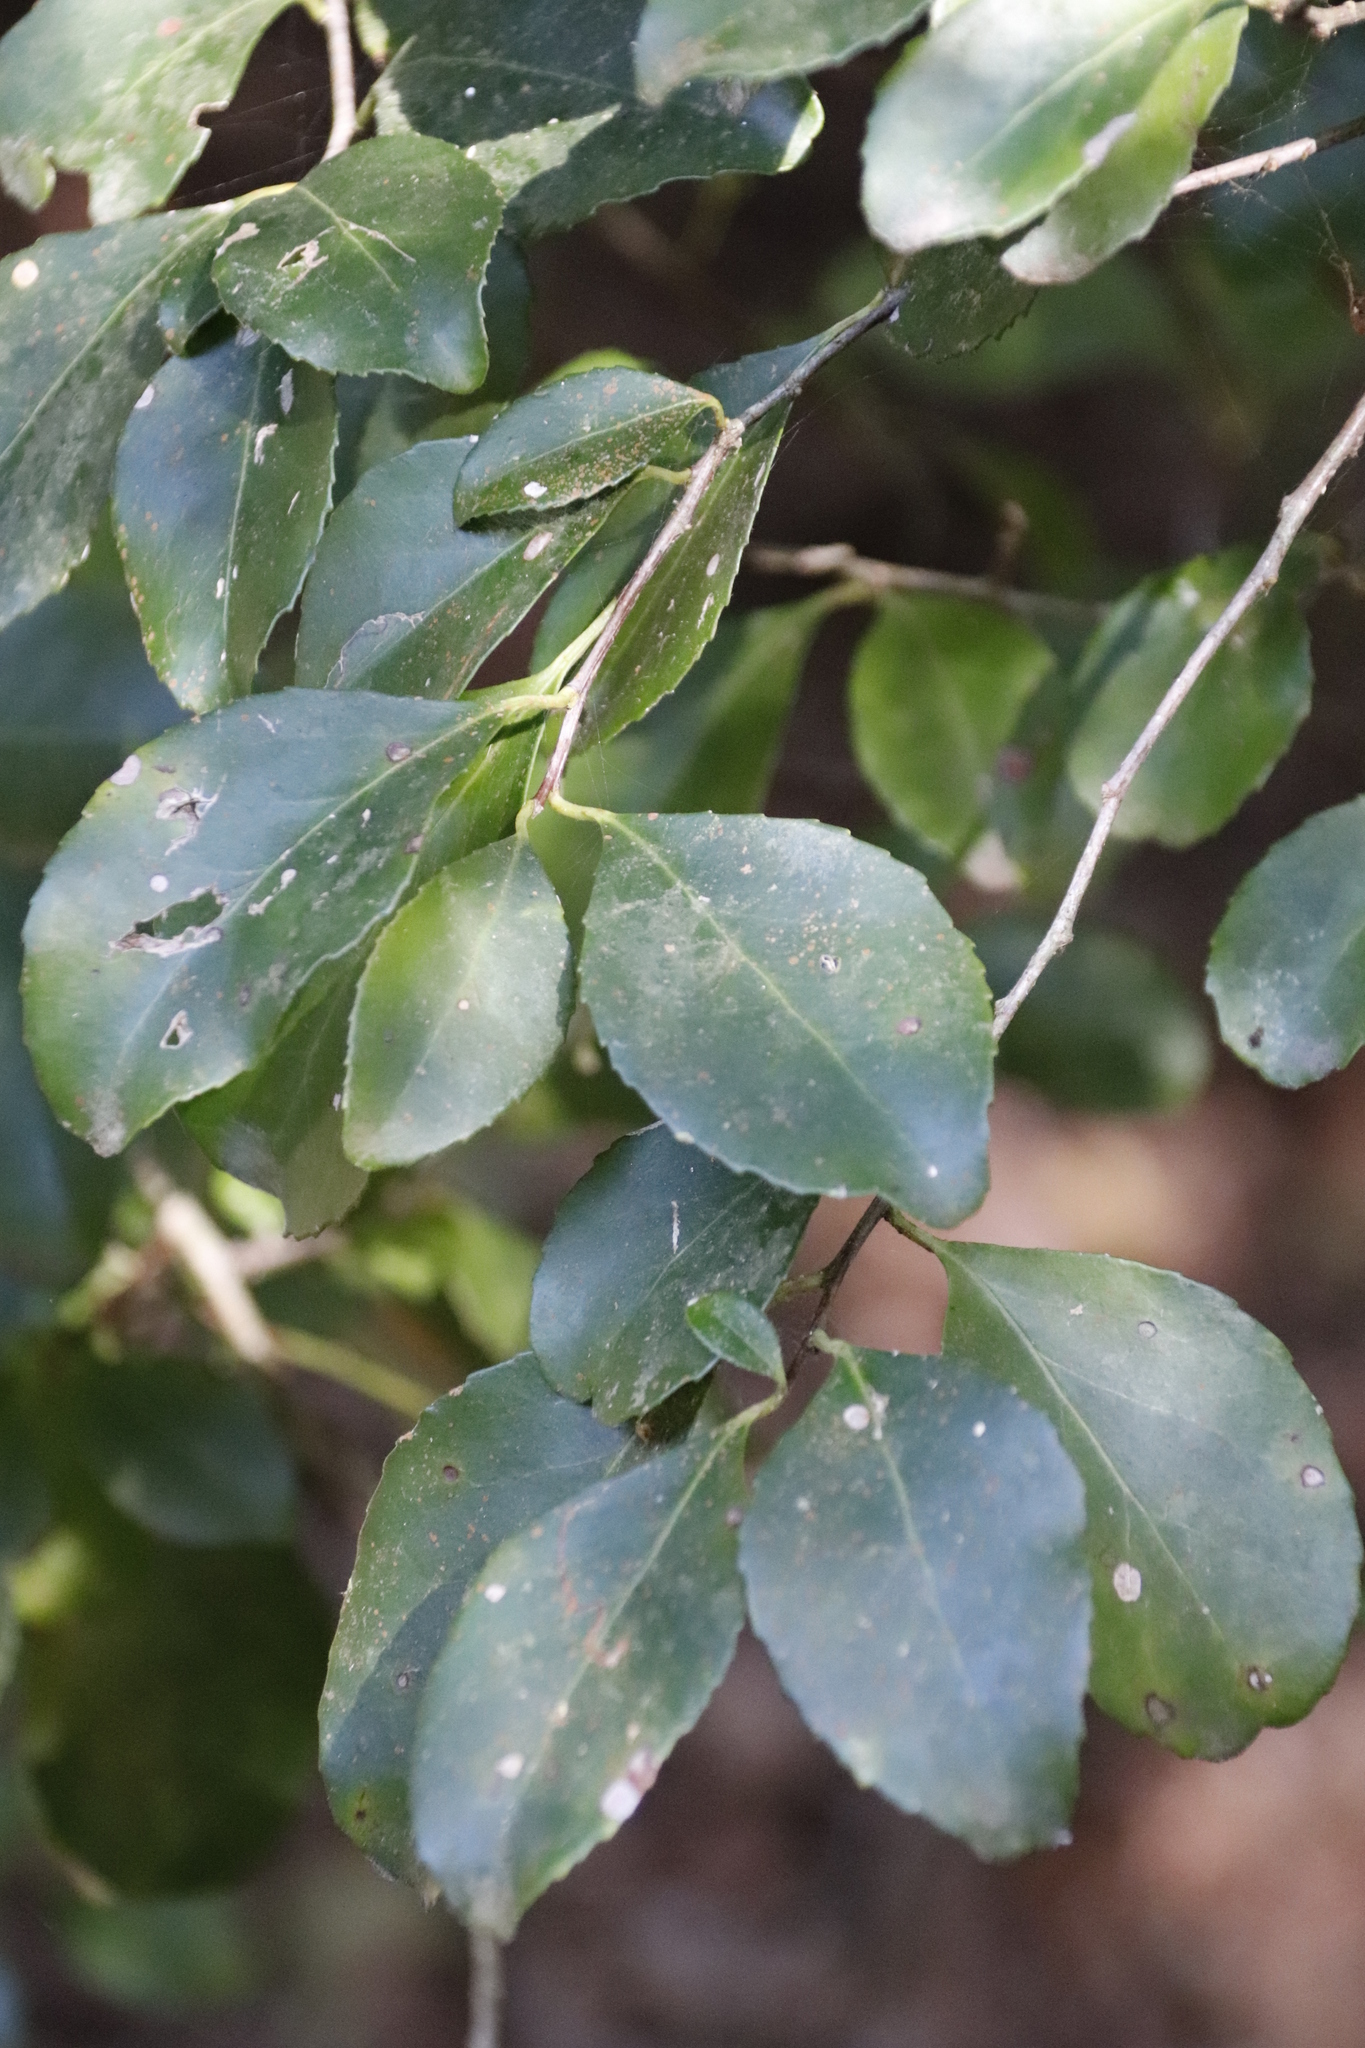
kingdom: Plantae
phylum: Tracheophyta
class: Magnoliopsida
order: Celastrales
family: Celastraceae
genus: Gymnosporia
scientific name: Gymnosporia nemorosa
